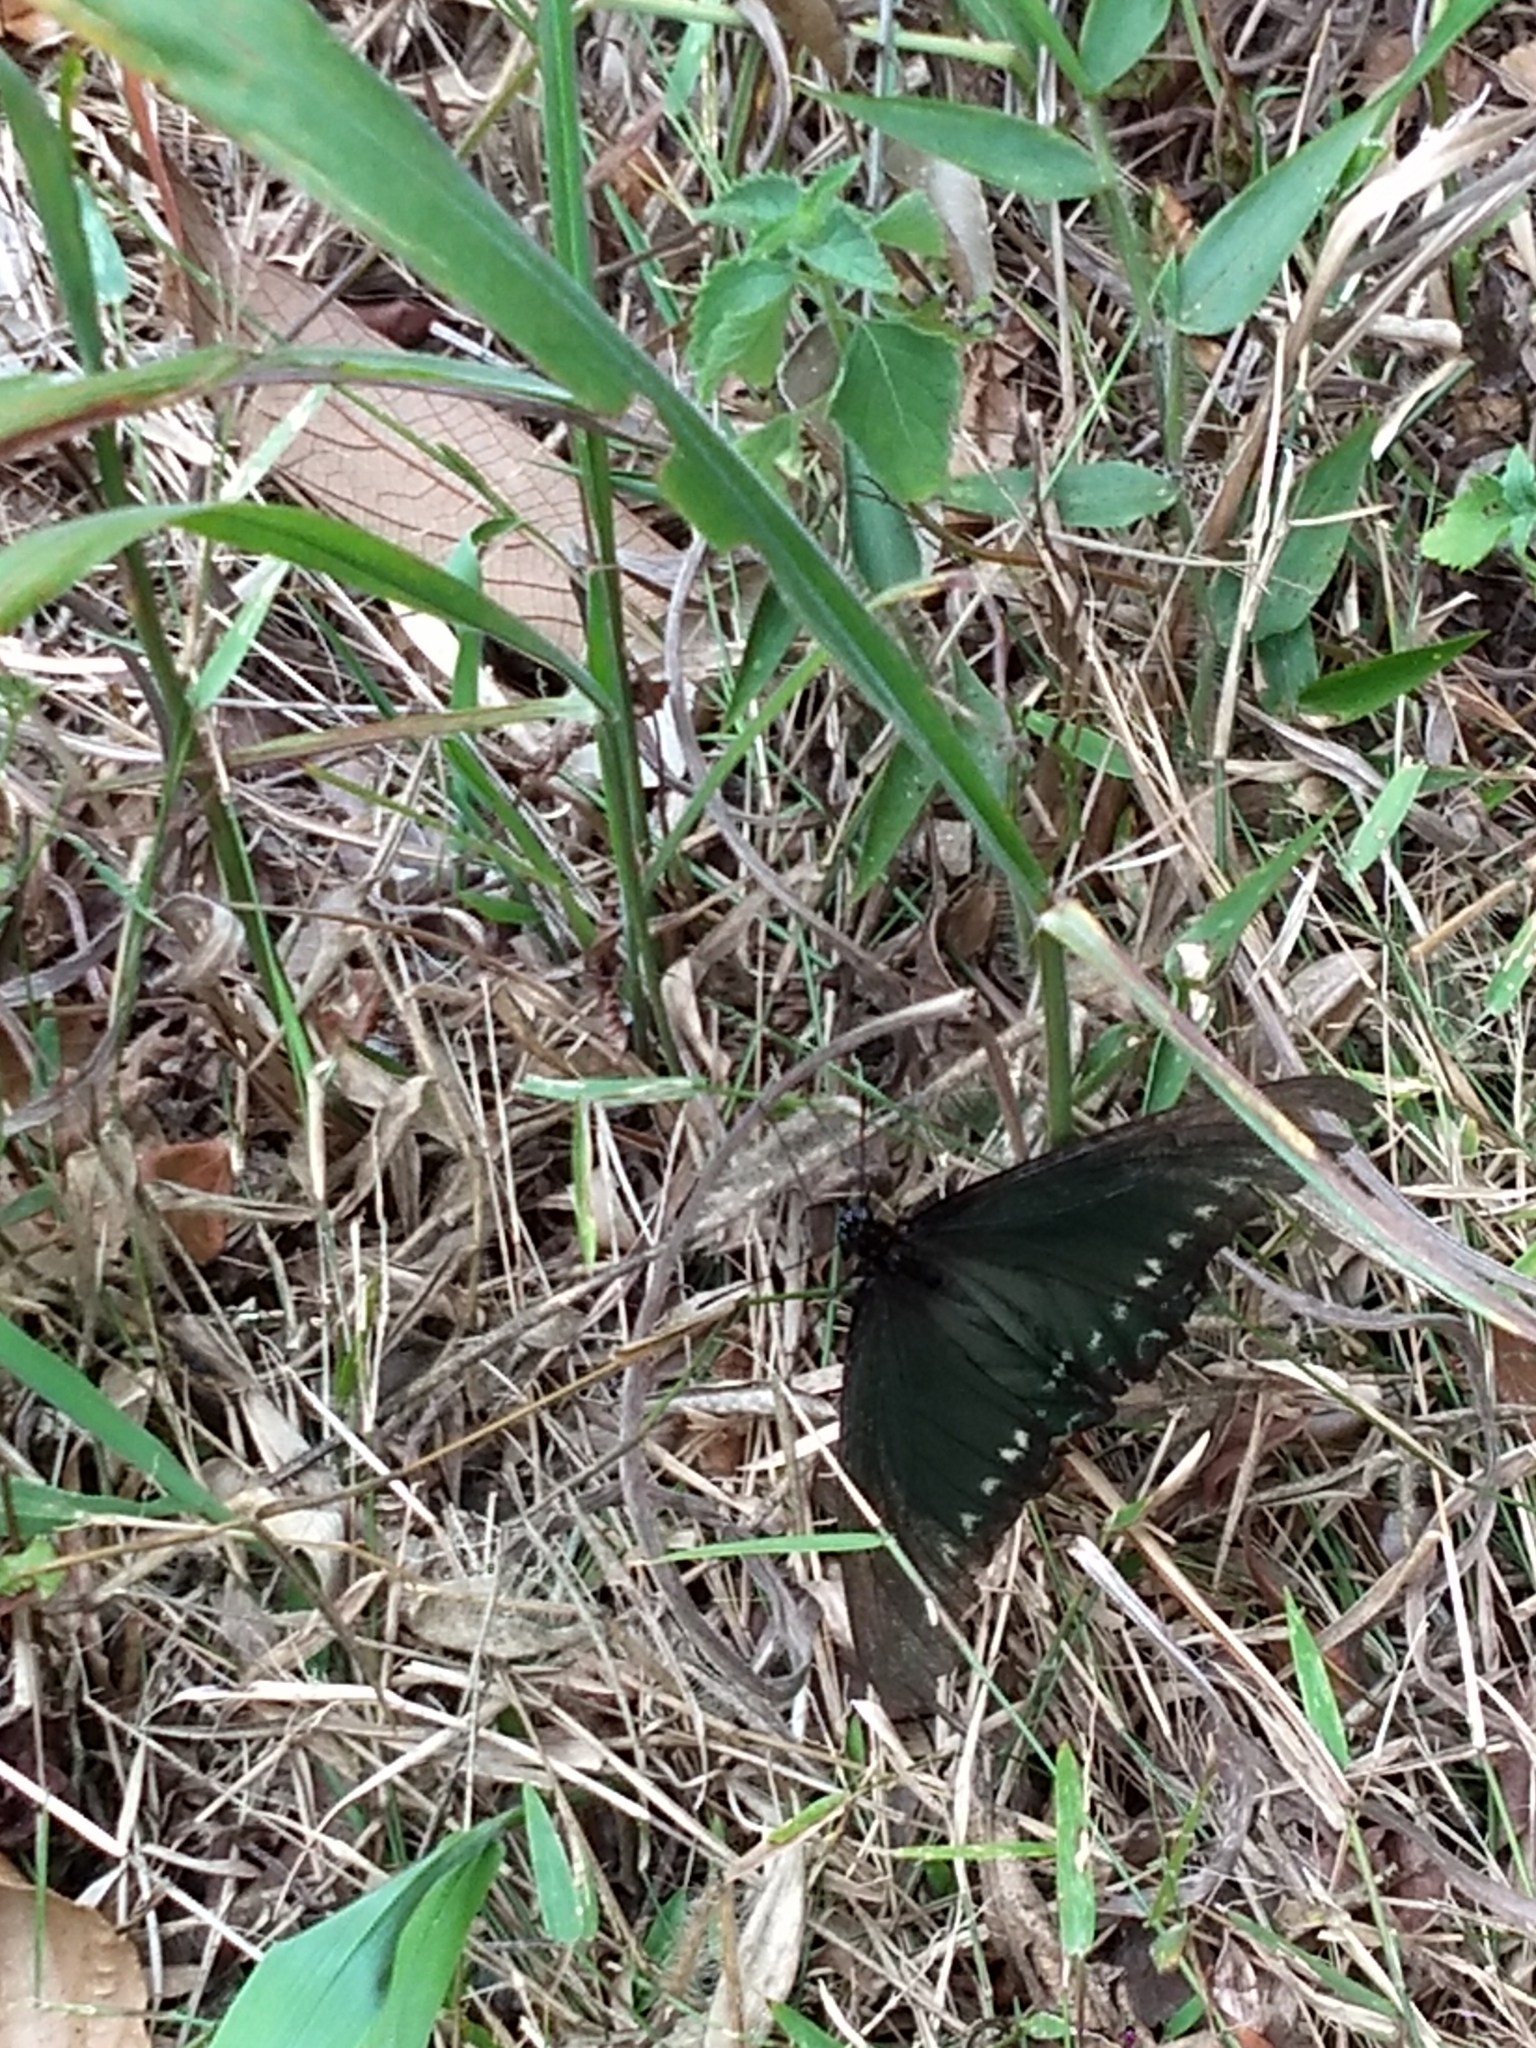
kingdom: Animalia
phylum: Arthropoda
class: Insecta
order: Lepidoptera
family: Papilionidae
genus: Battus
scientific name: Battus polystictus
